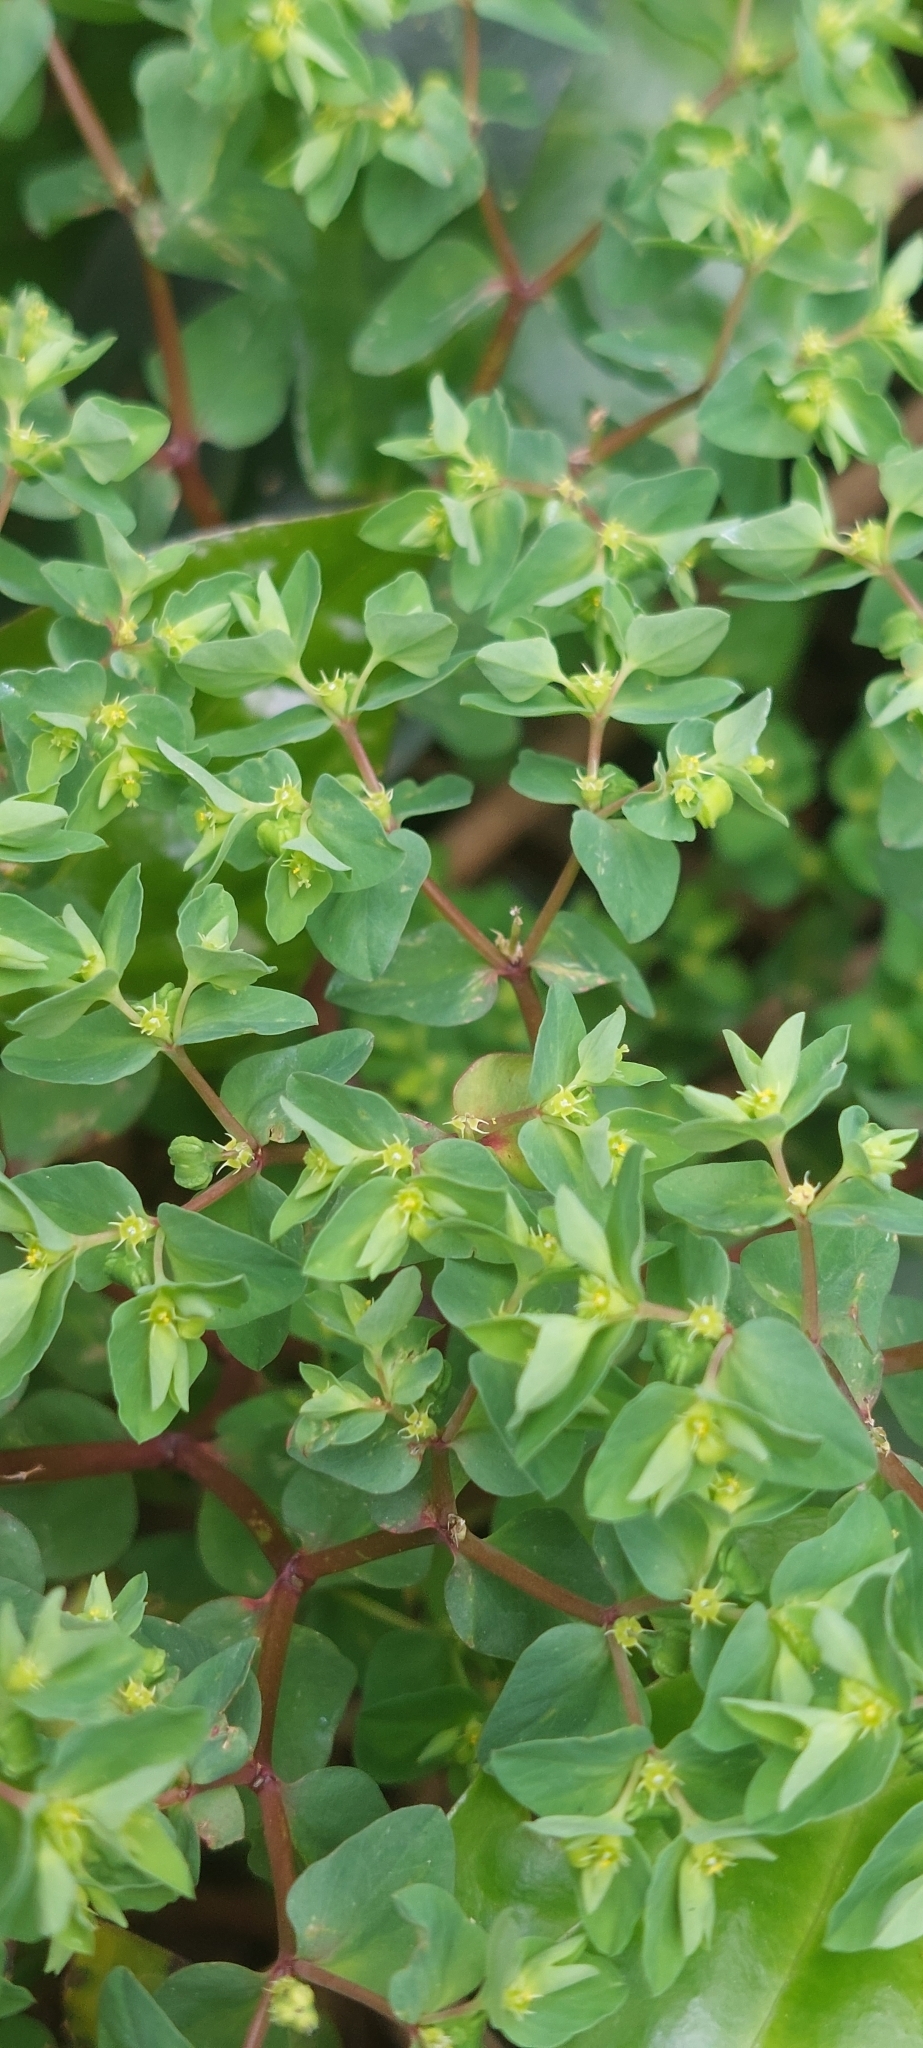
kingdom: Plantae
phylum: Tracheophyta
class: Magnoliopsida
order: Malpighiales
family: Euphorbiaceae
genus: Euphorbia
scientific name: Euphorbia peplus
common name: Petty spurge
